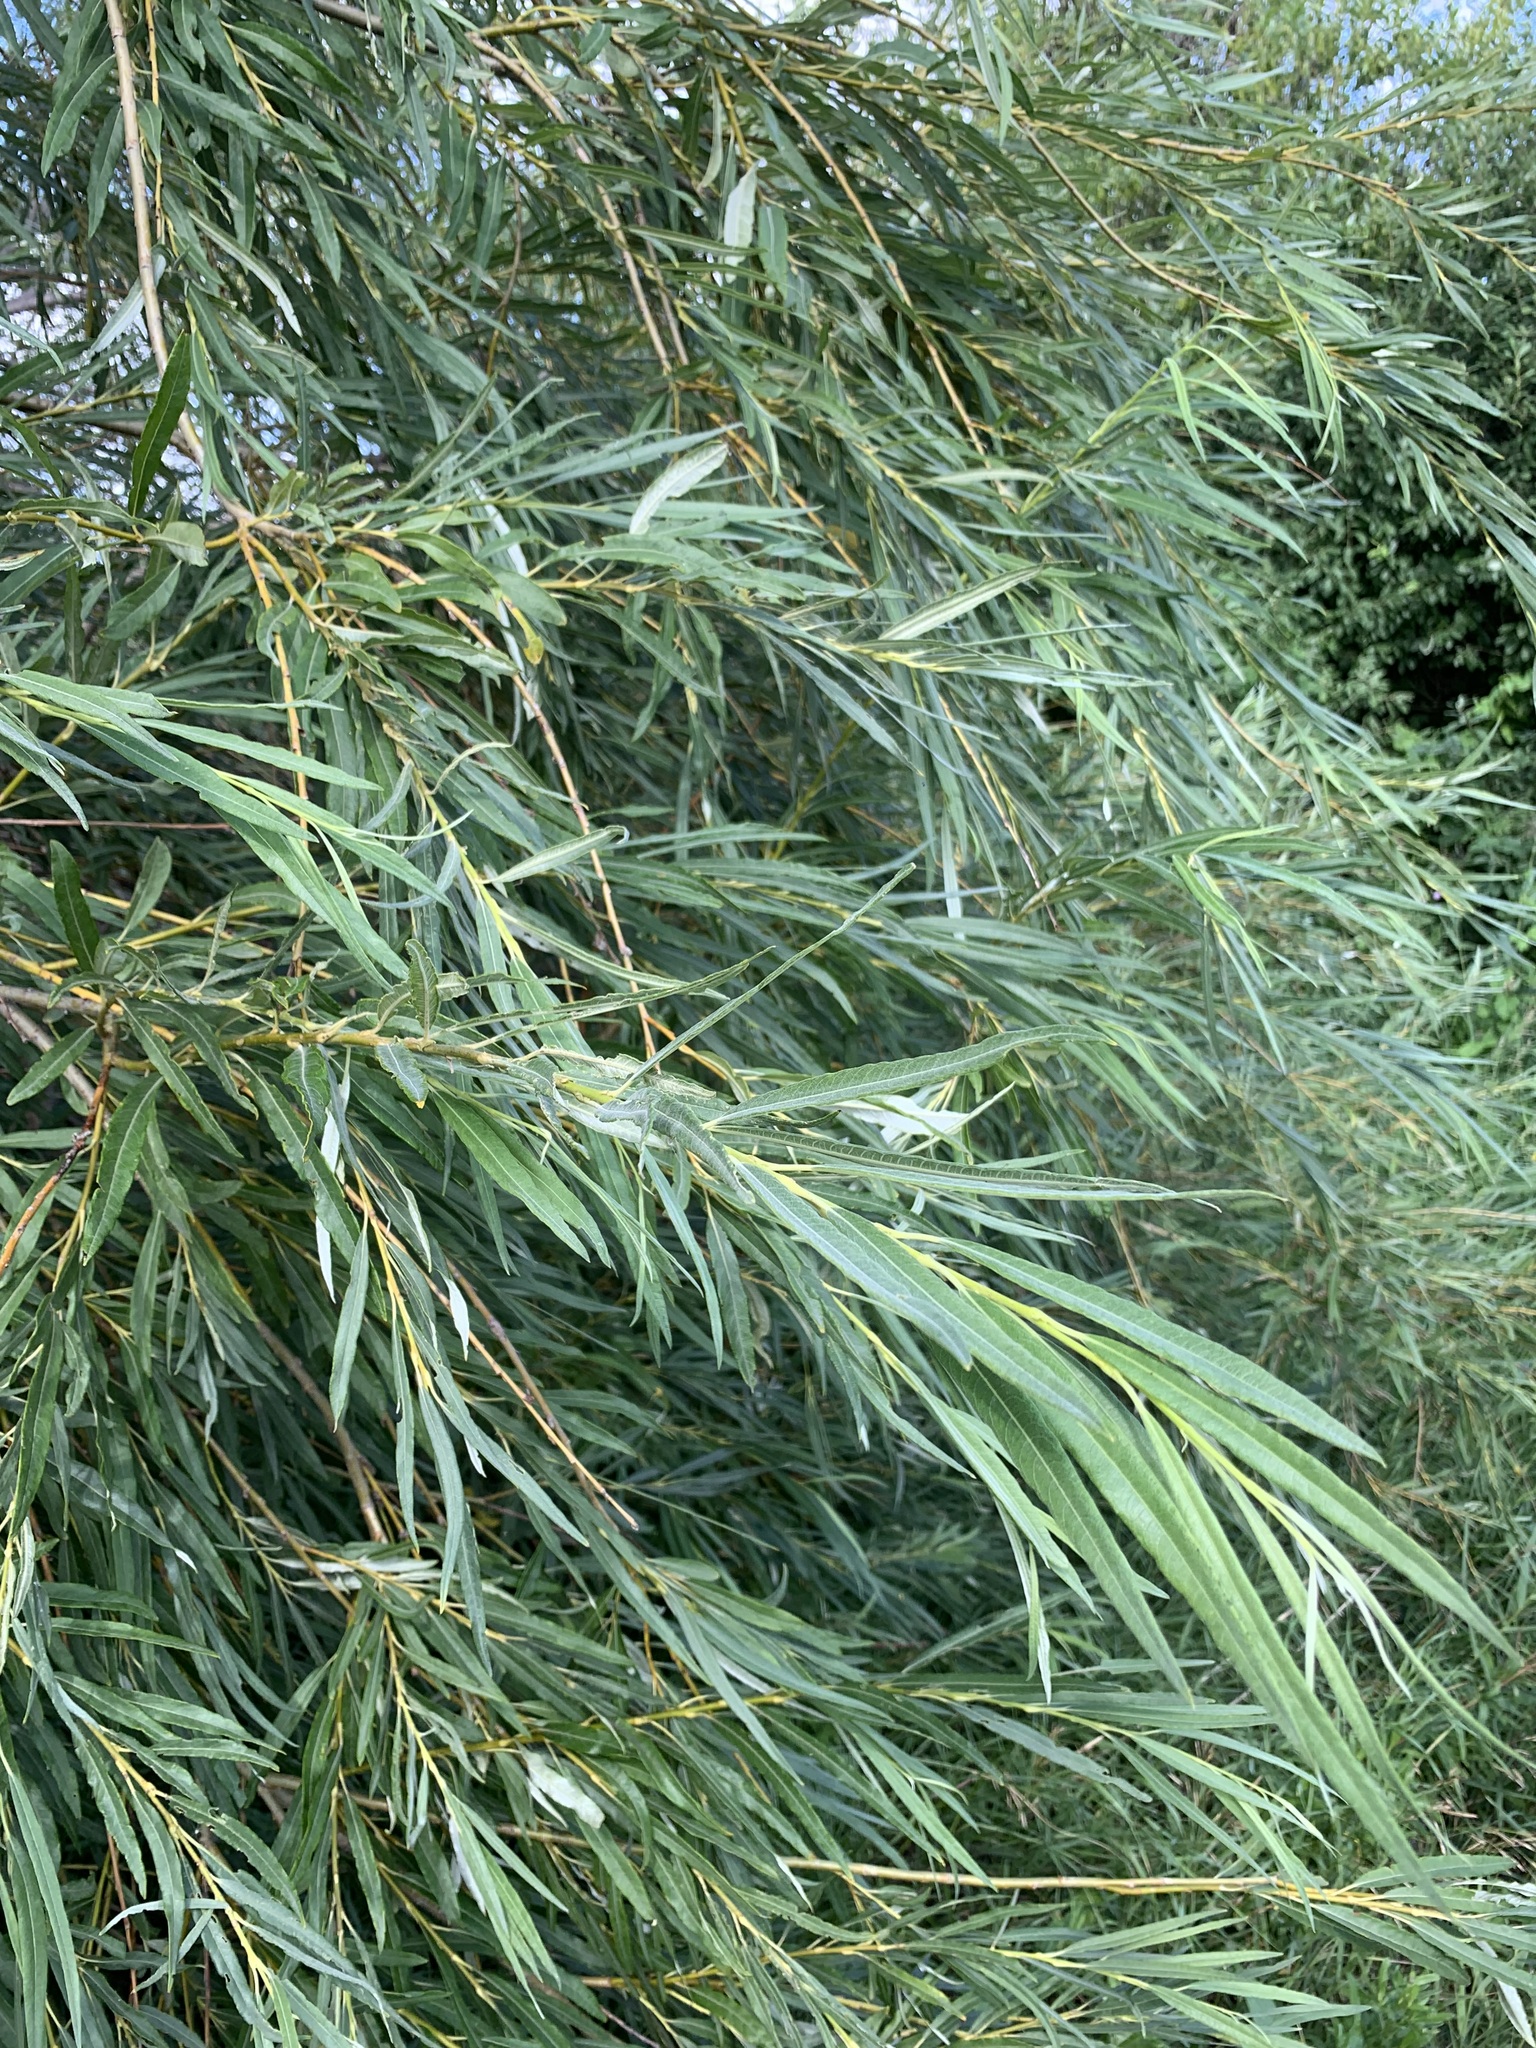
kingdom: Plantae
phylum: Tracheophyta
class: Magnoliopsida
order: Malpighiales
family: Salicaceae
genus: Salix
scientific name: Salix viminalis
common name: Osier
